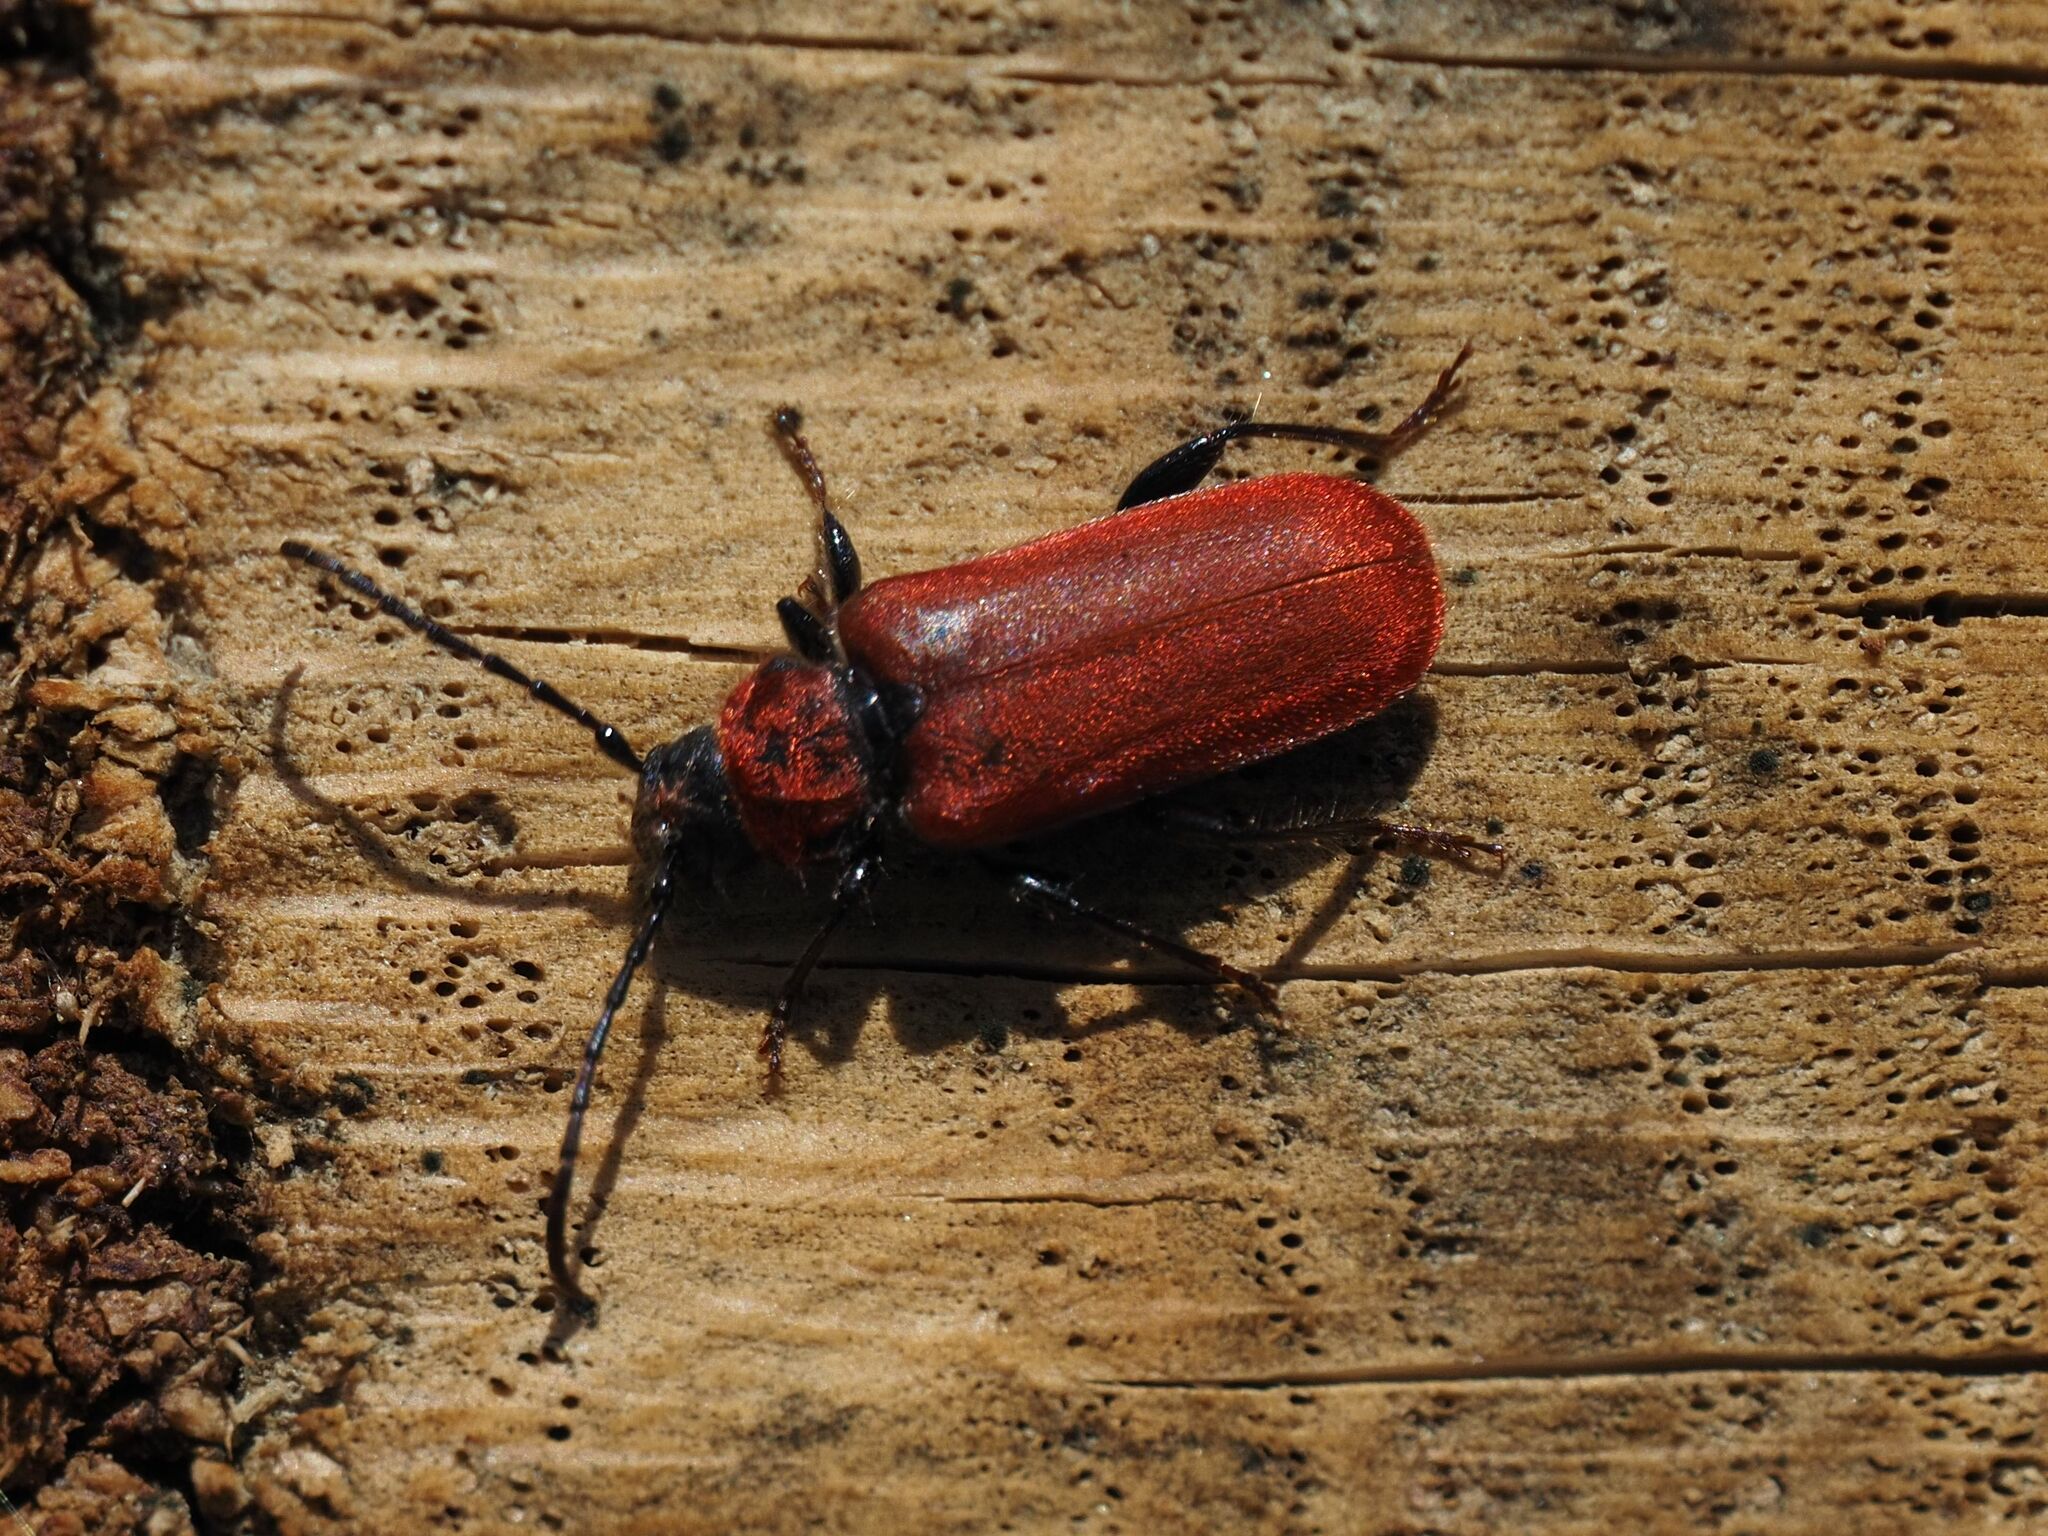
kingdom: Animalia
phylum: Arthropoda
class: Insecta
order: Coleoptera
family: Cerambycidae
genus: Pyrrhidium
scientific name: Pyrrhidium sanguineum
